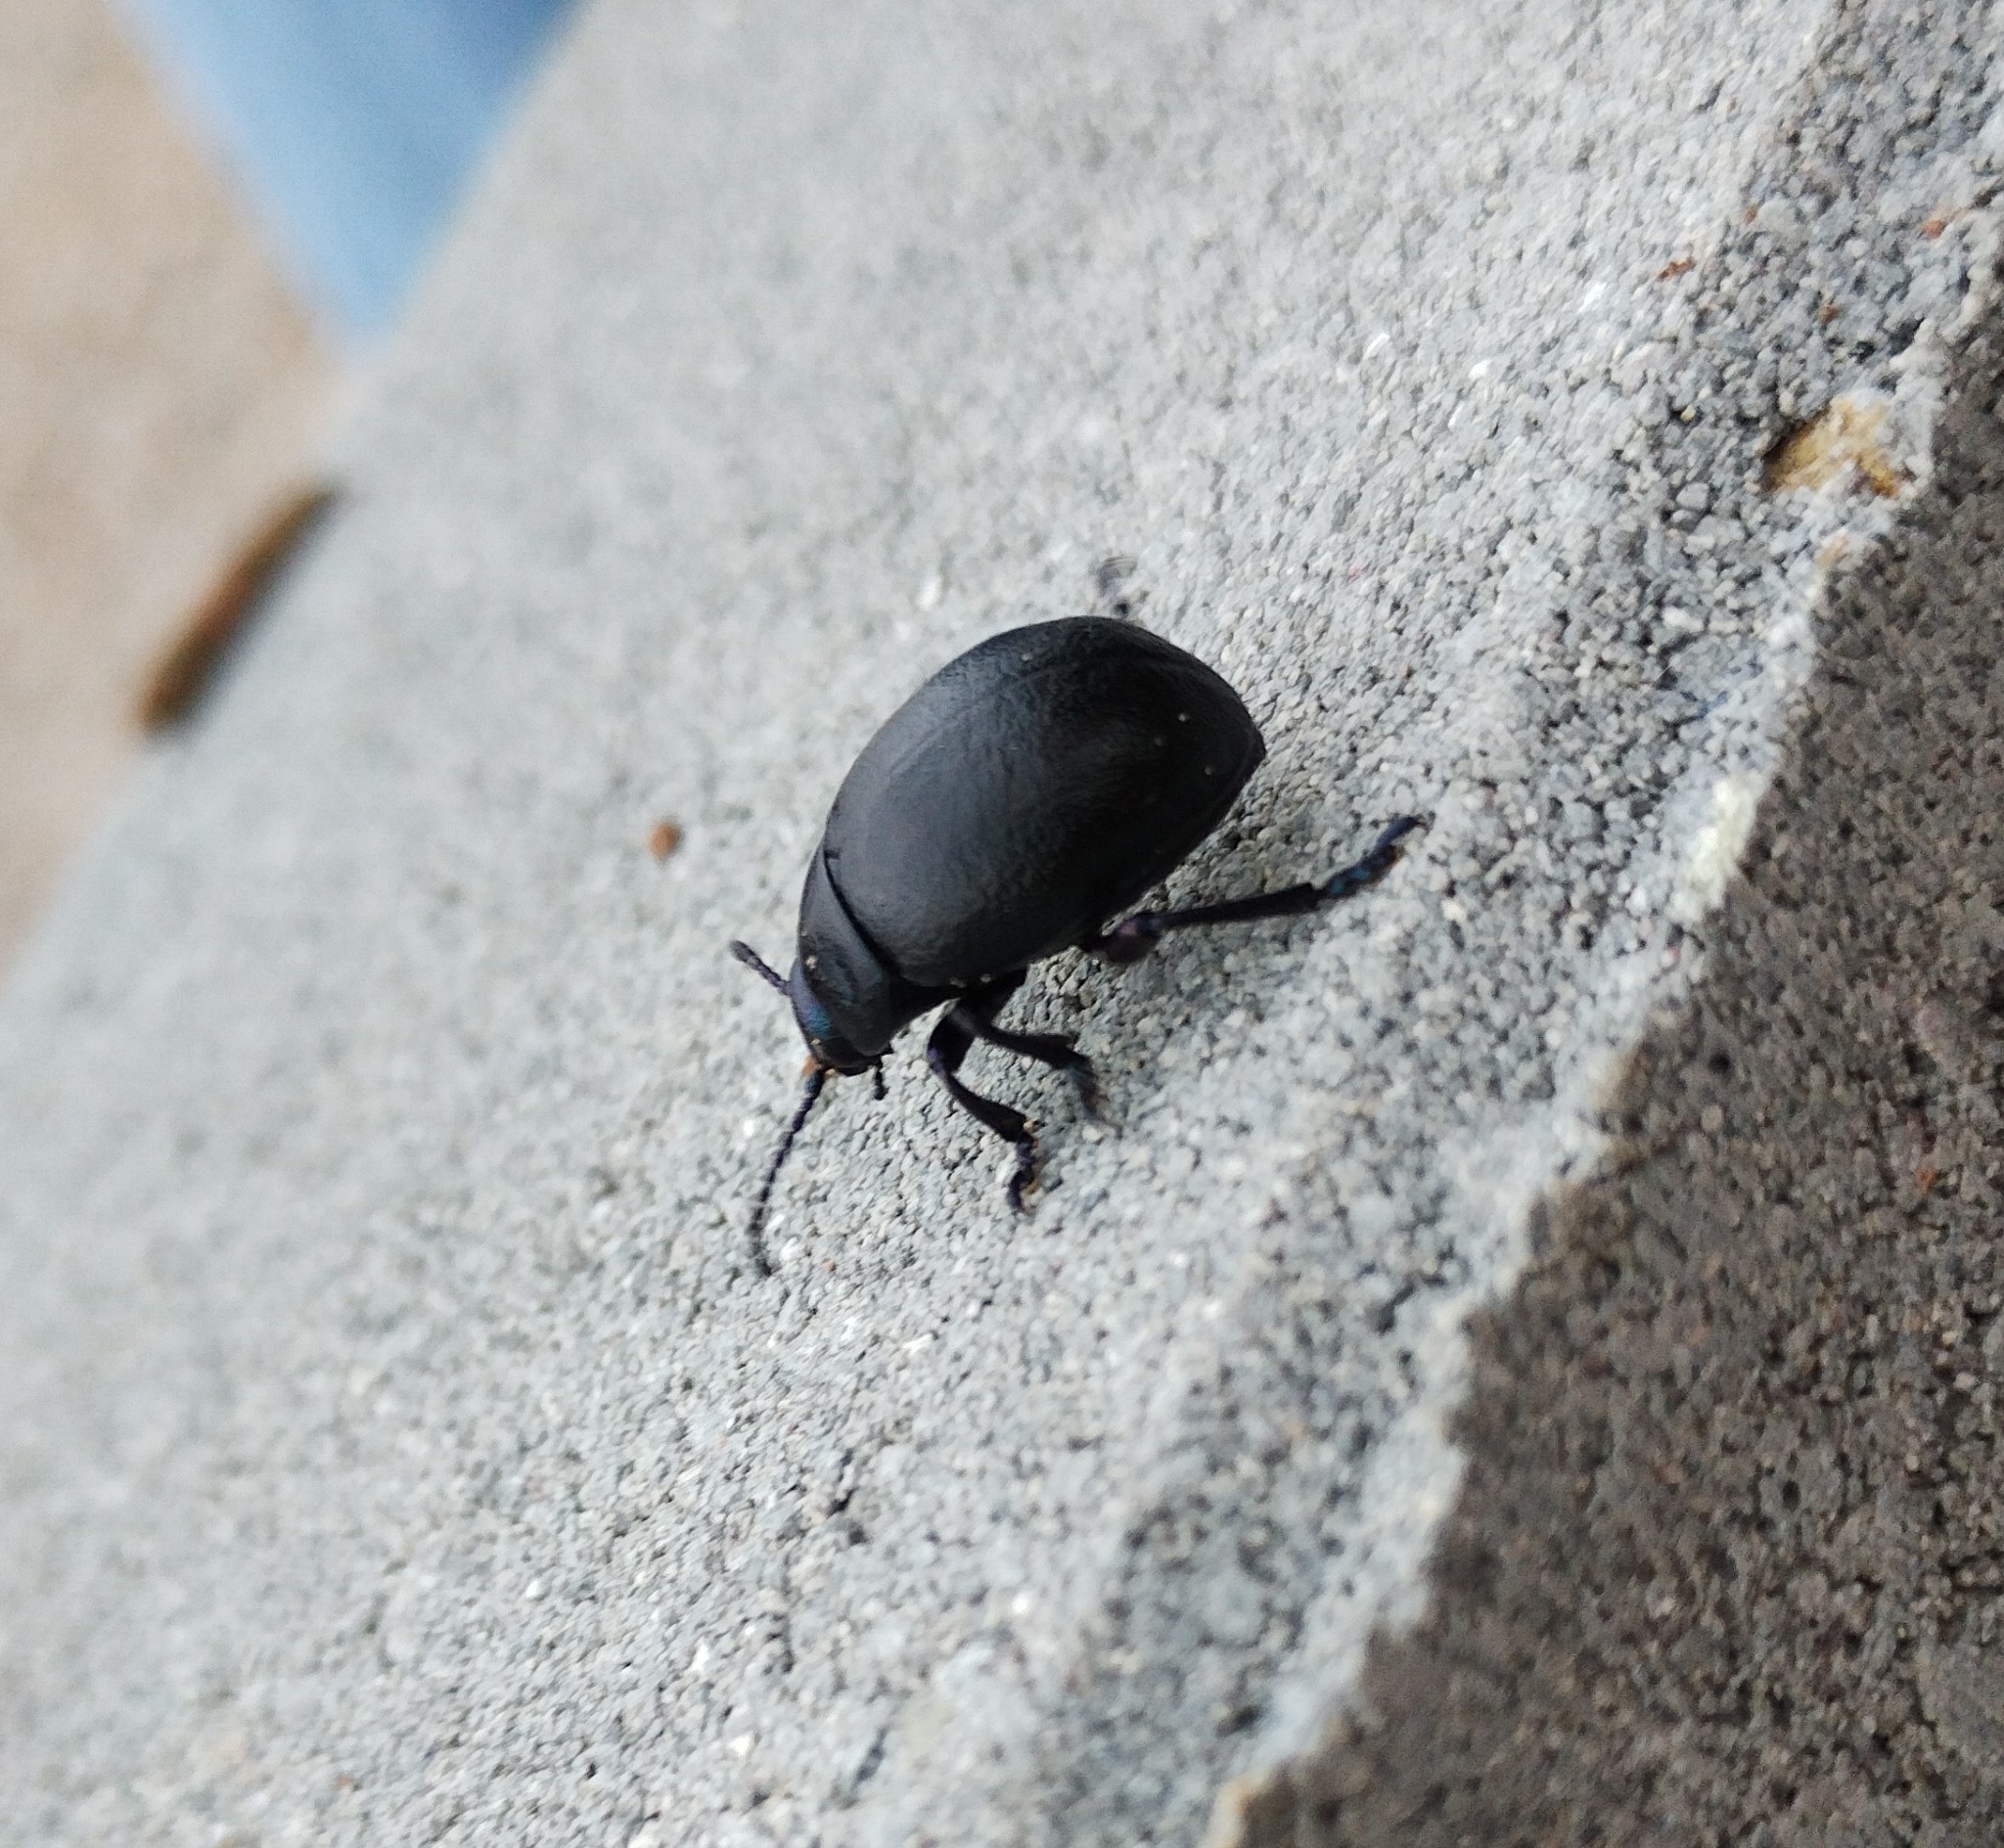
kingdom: Animalia
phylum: Arthropoda
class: Insecta
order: Coleoptera
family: Chrysomelidae
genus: Timarcha
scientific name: Timarcha goettingensis
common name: Small bloody-nosed beetle
